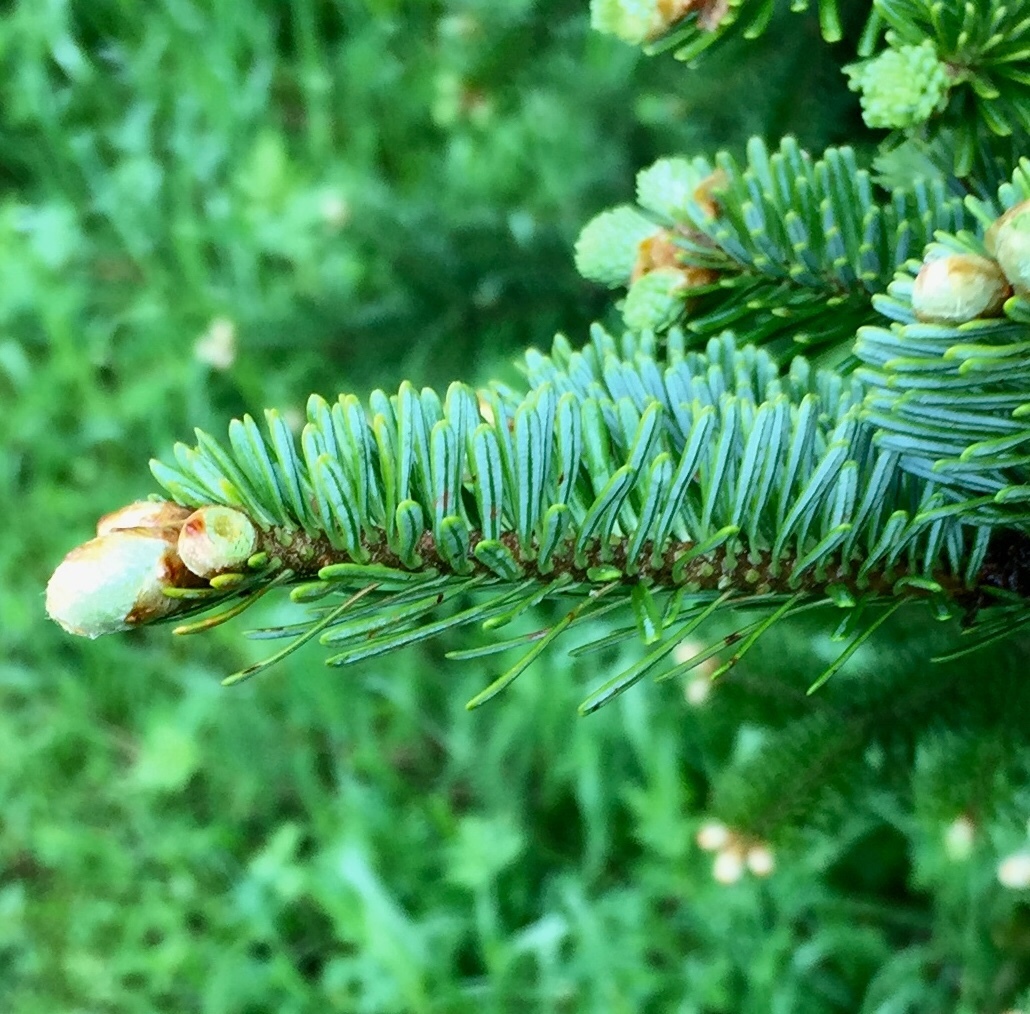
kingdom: Plantae
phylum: Tracheophyta
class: Pinopsida
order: Pinales
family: Pinaceae
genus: Abies
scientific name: Abies fraseri
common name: Fraser fir
